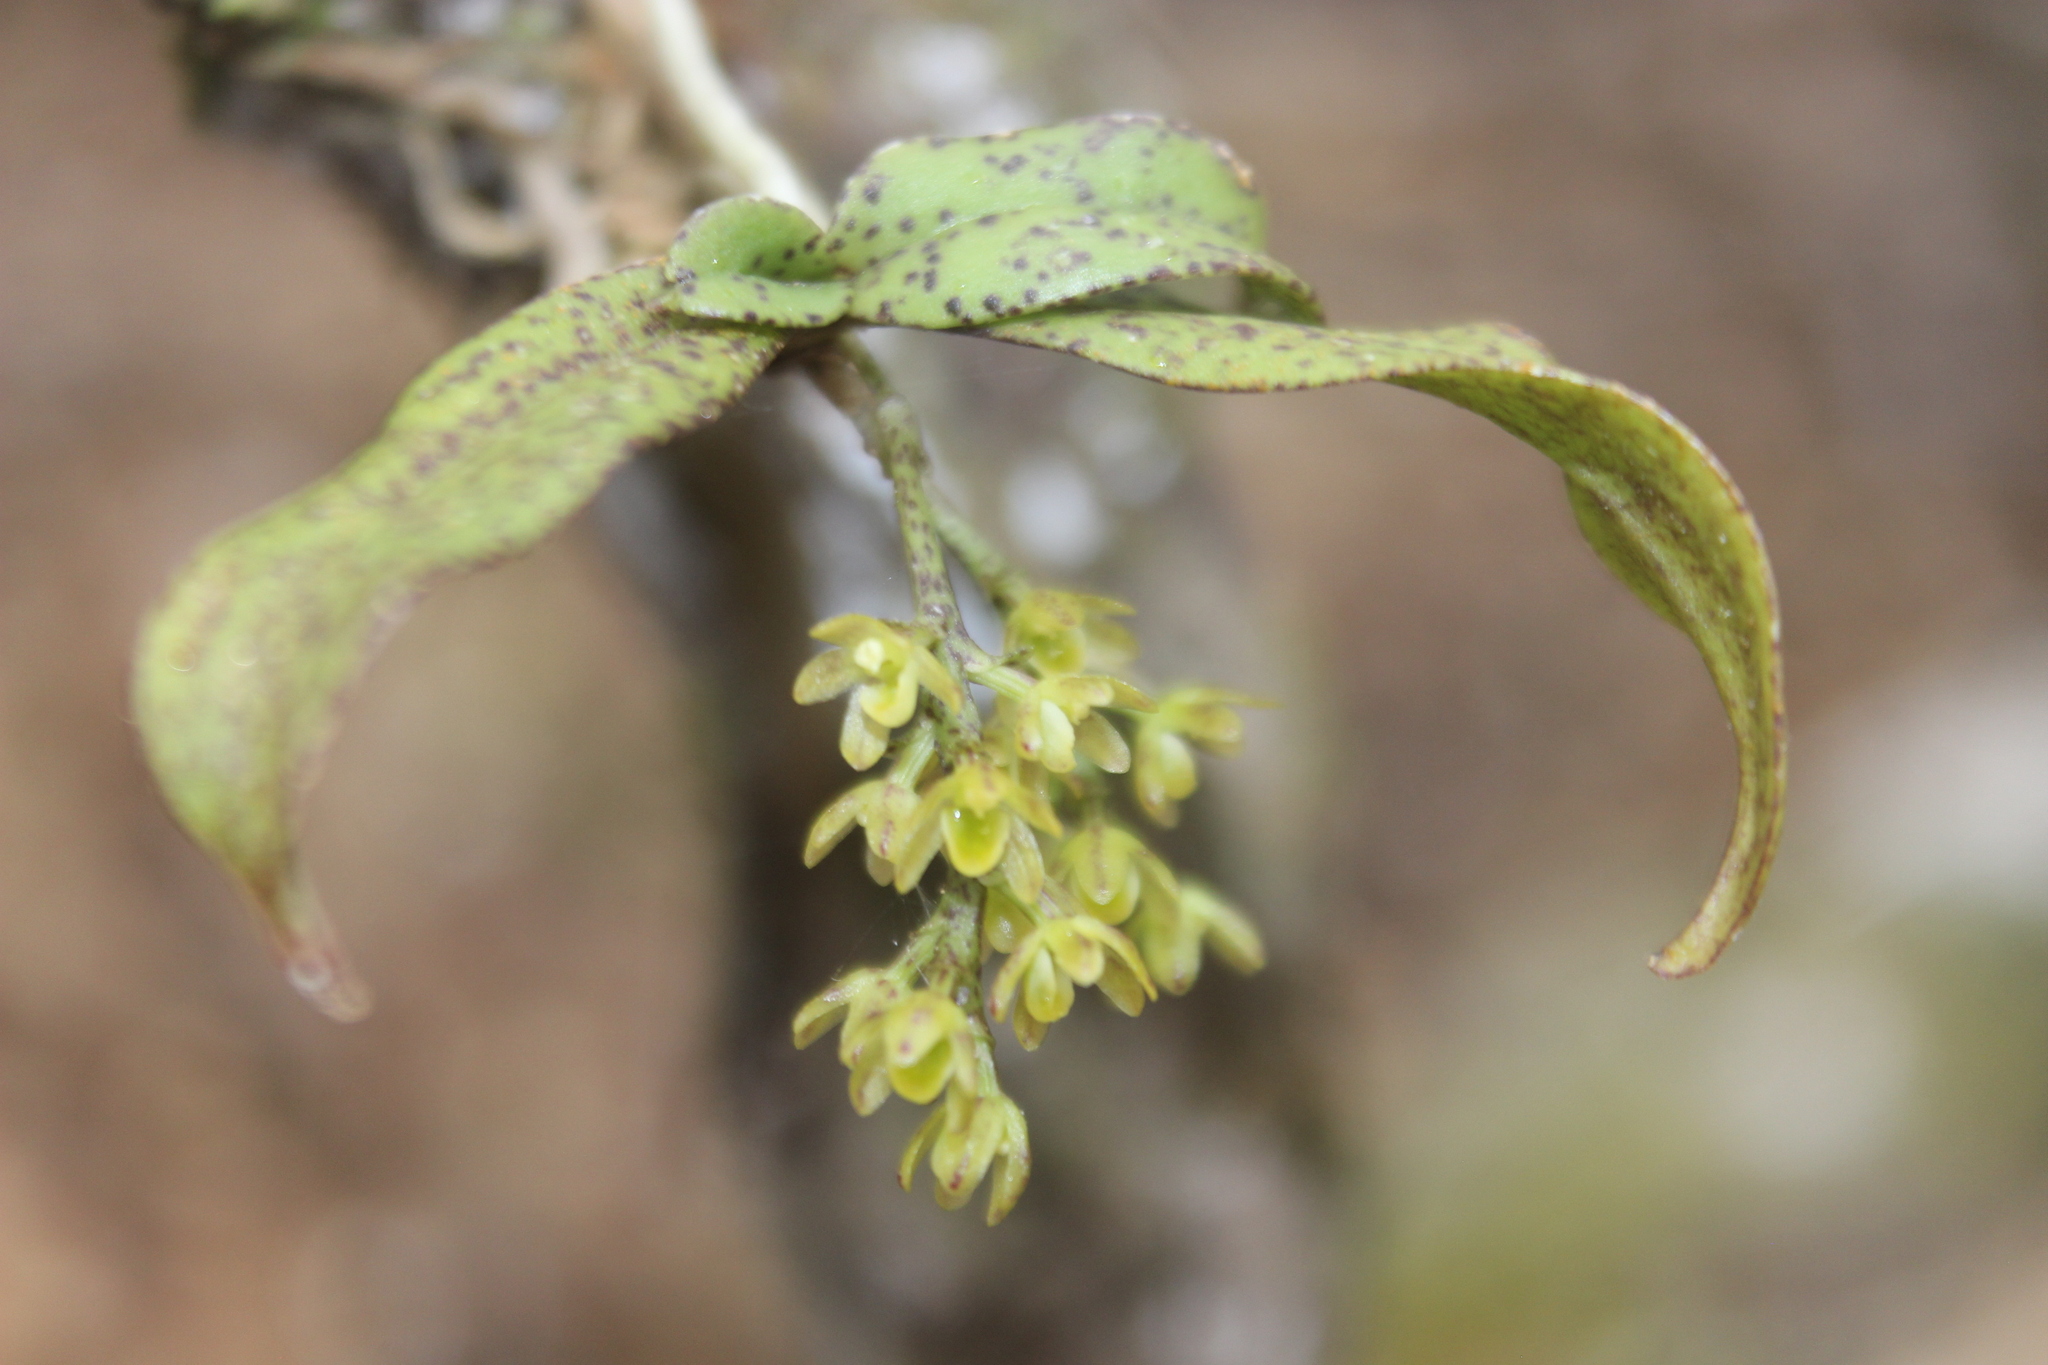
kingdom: Plantae
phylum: Tracheophyta
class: Liliopsida
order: Asparagales
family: Orchidaceae
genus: Drymoanthus
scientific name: Drymoanthus flavus
